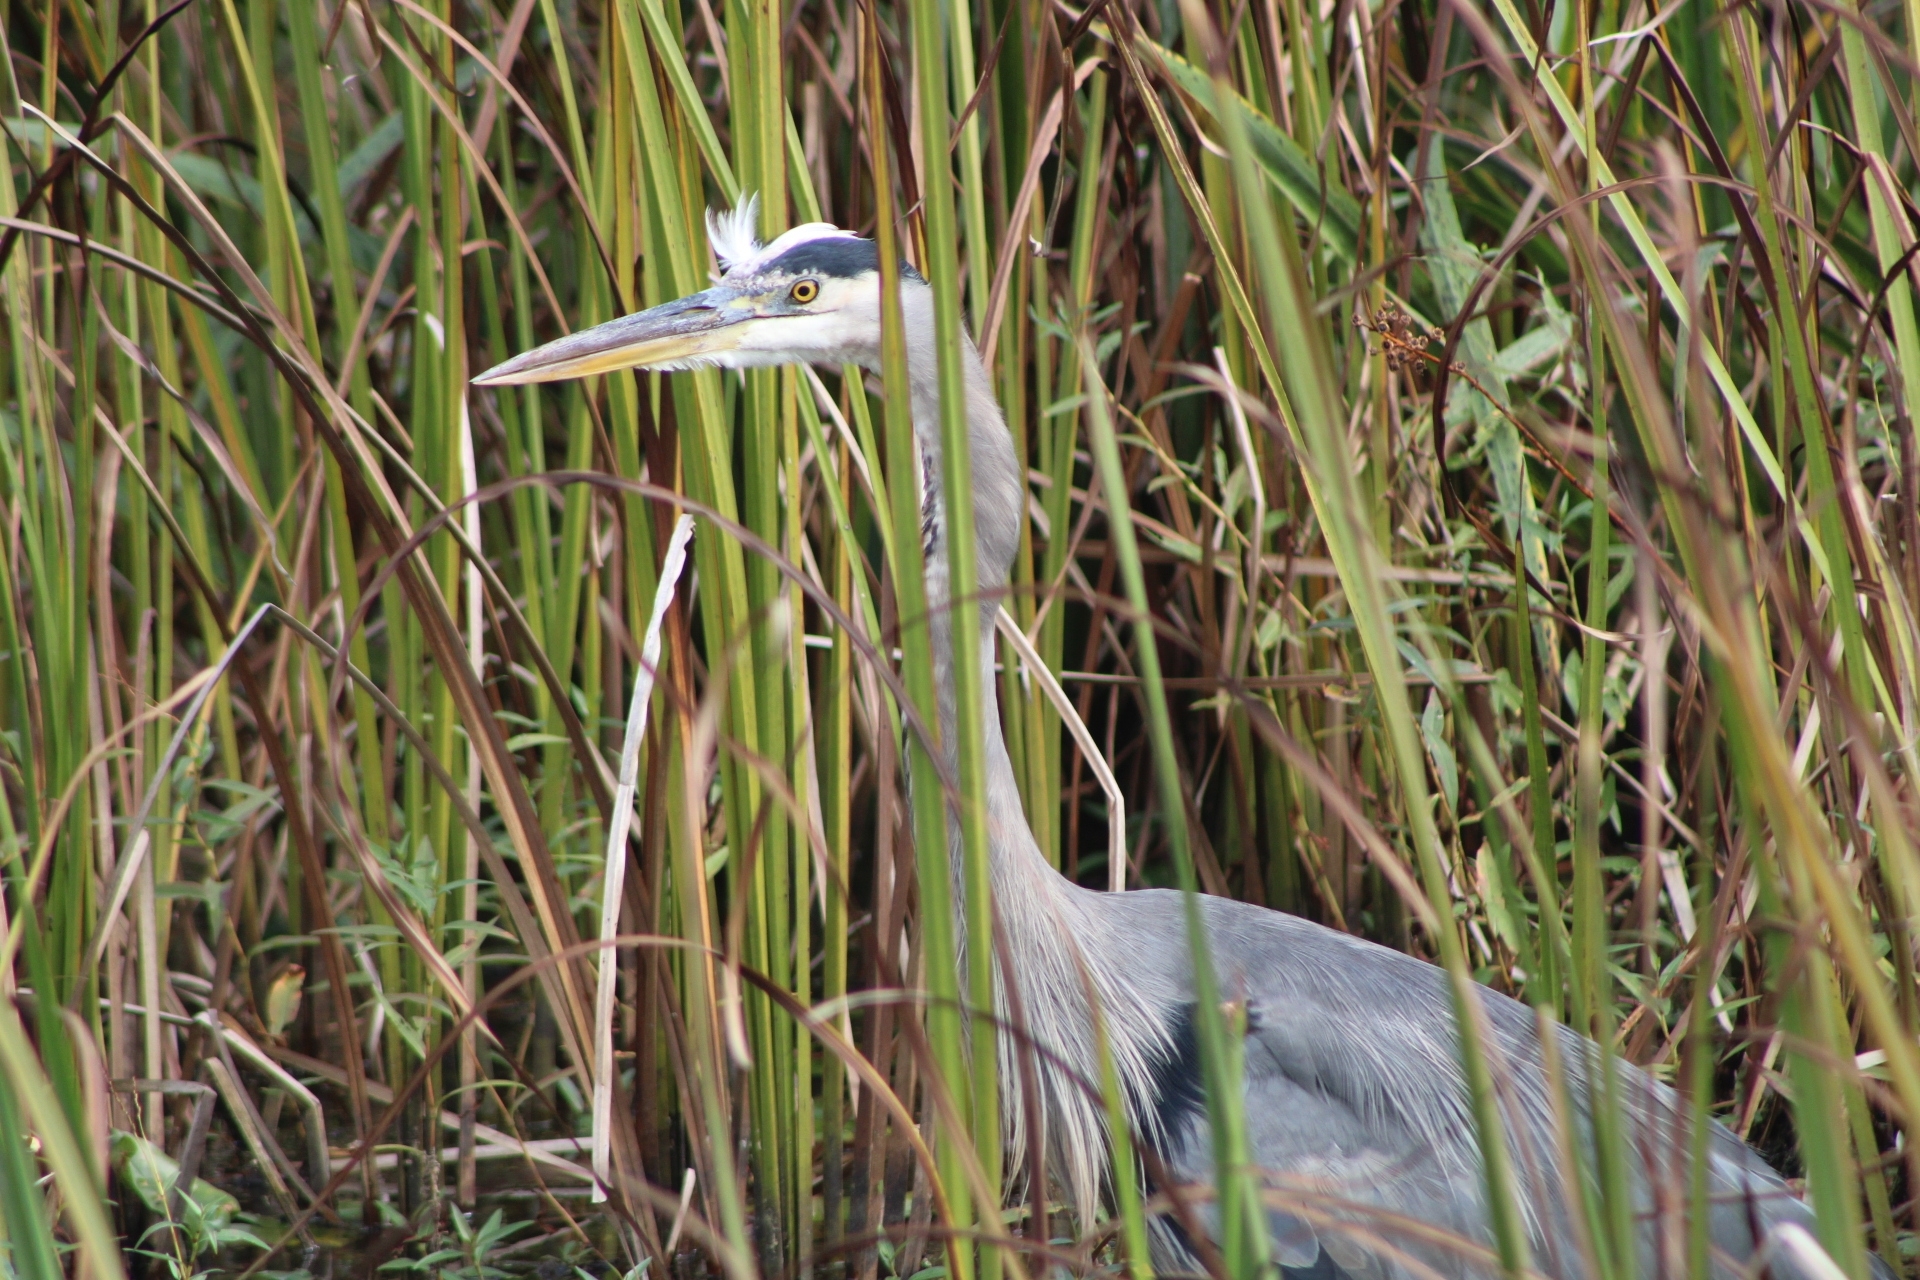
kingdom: Animalia
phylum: Chordata
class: Aves
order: Pelecaniformes
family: Ardeidae
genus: Ardea
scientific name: Ardea herodias
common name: Great blue heron
